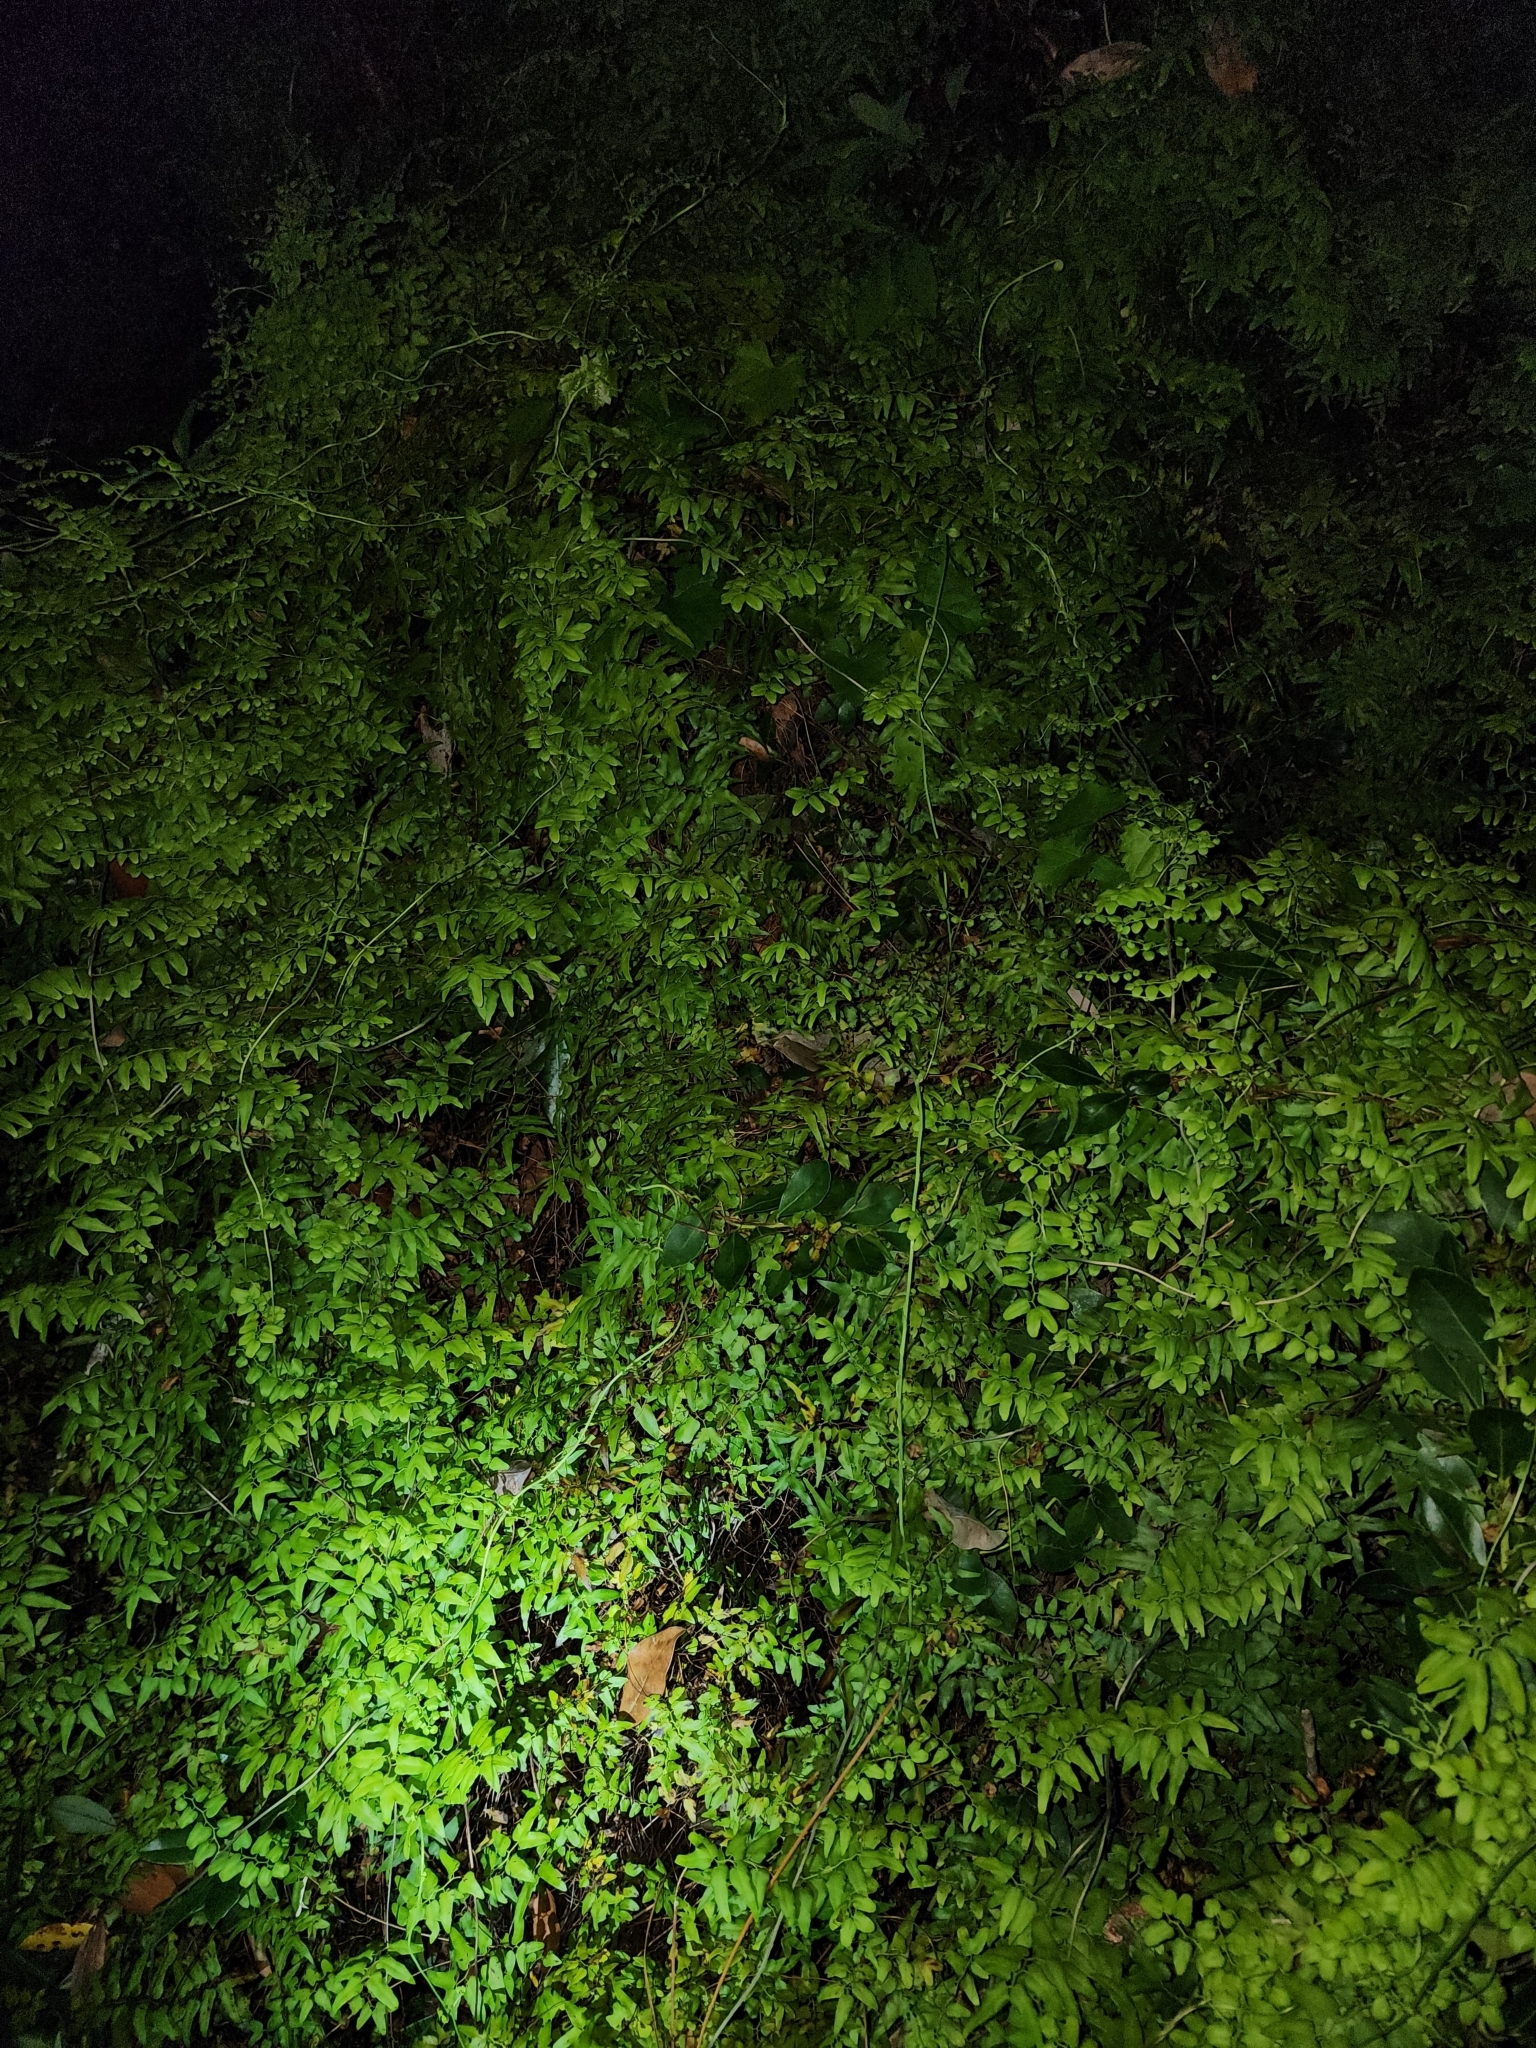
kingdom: Plantae
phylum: Tracheophyta
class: Polypodiopsida
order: Schizaeales
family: Lygodiaceae
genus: Lygodium
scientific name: Lygodium microphyllum
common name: Small-leaf climbing fern
